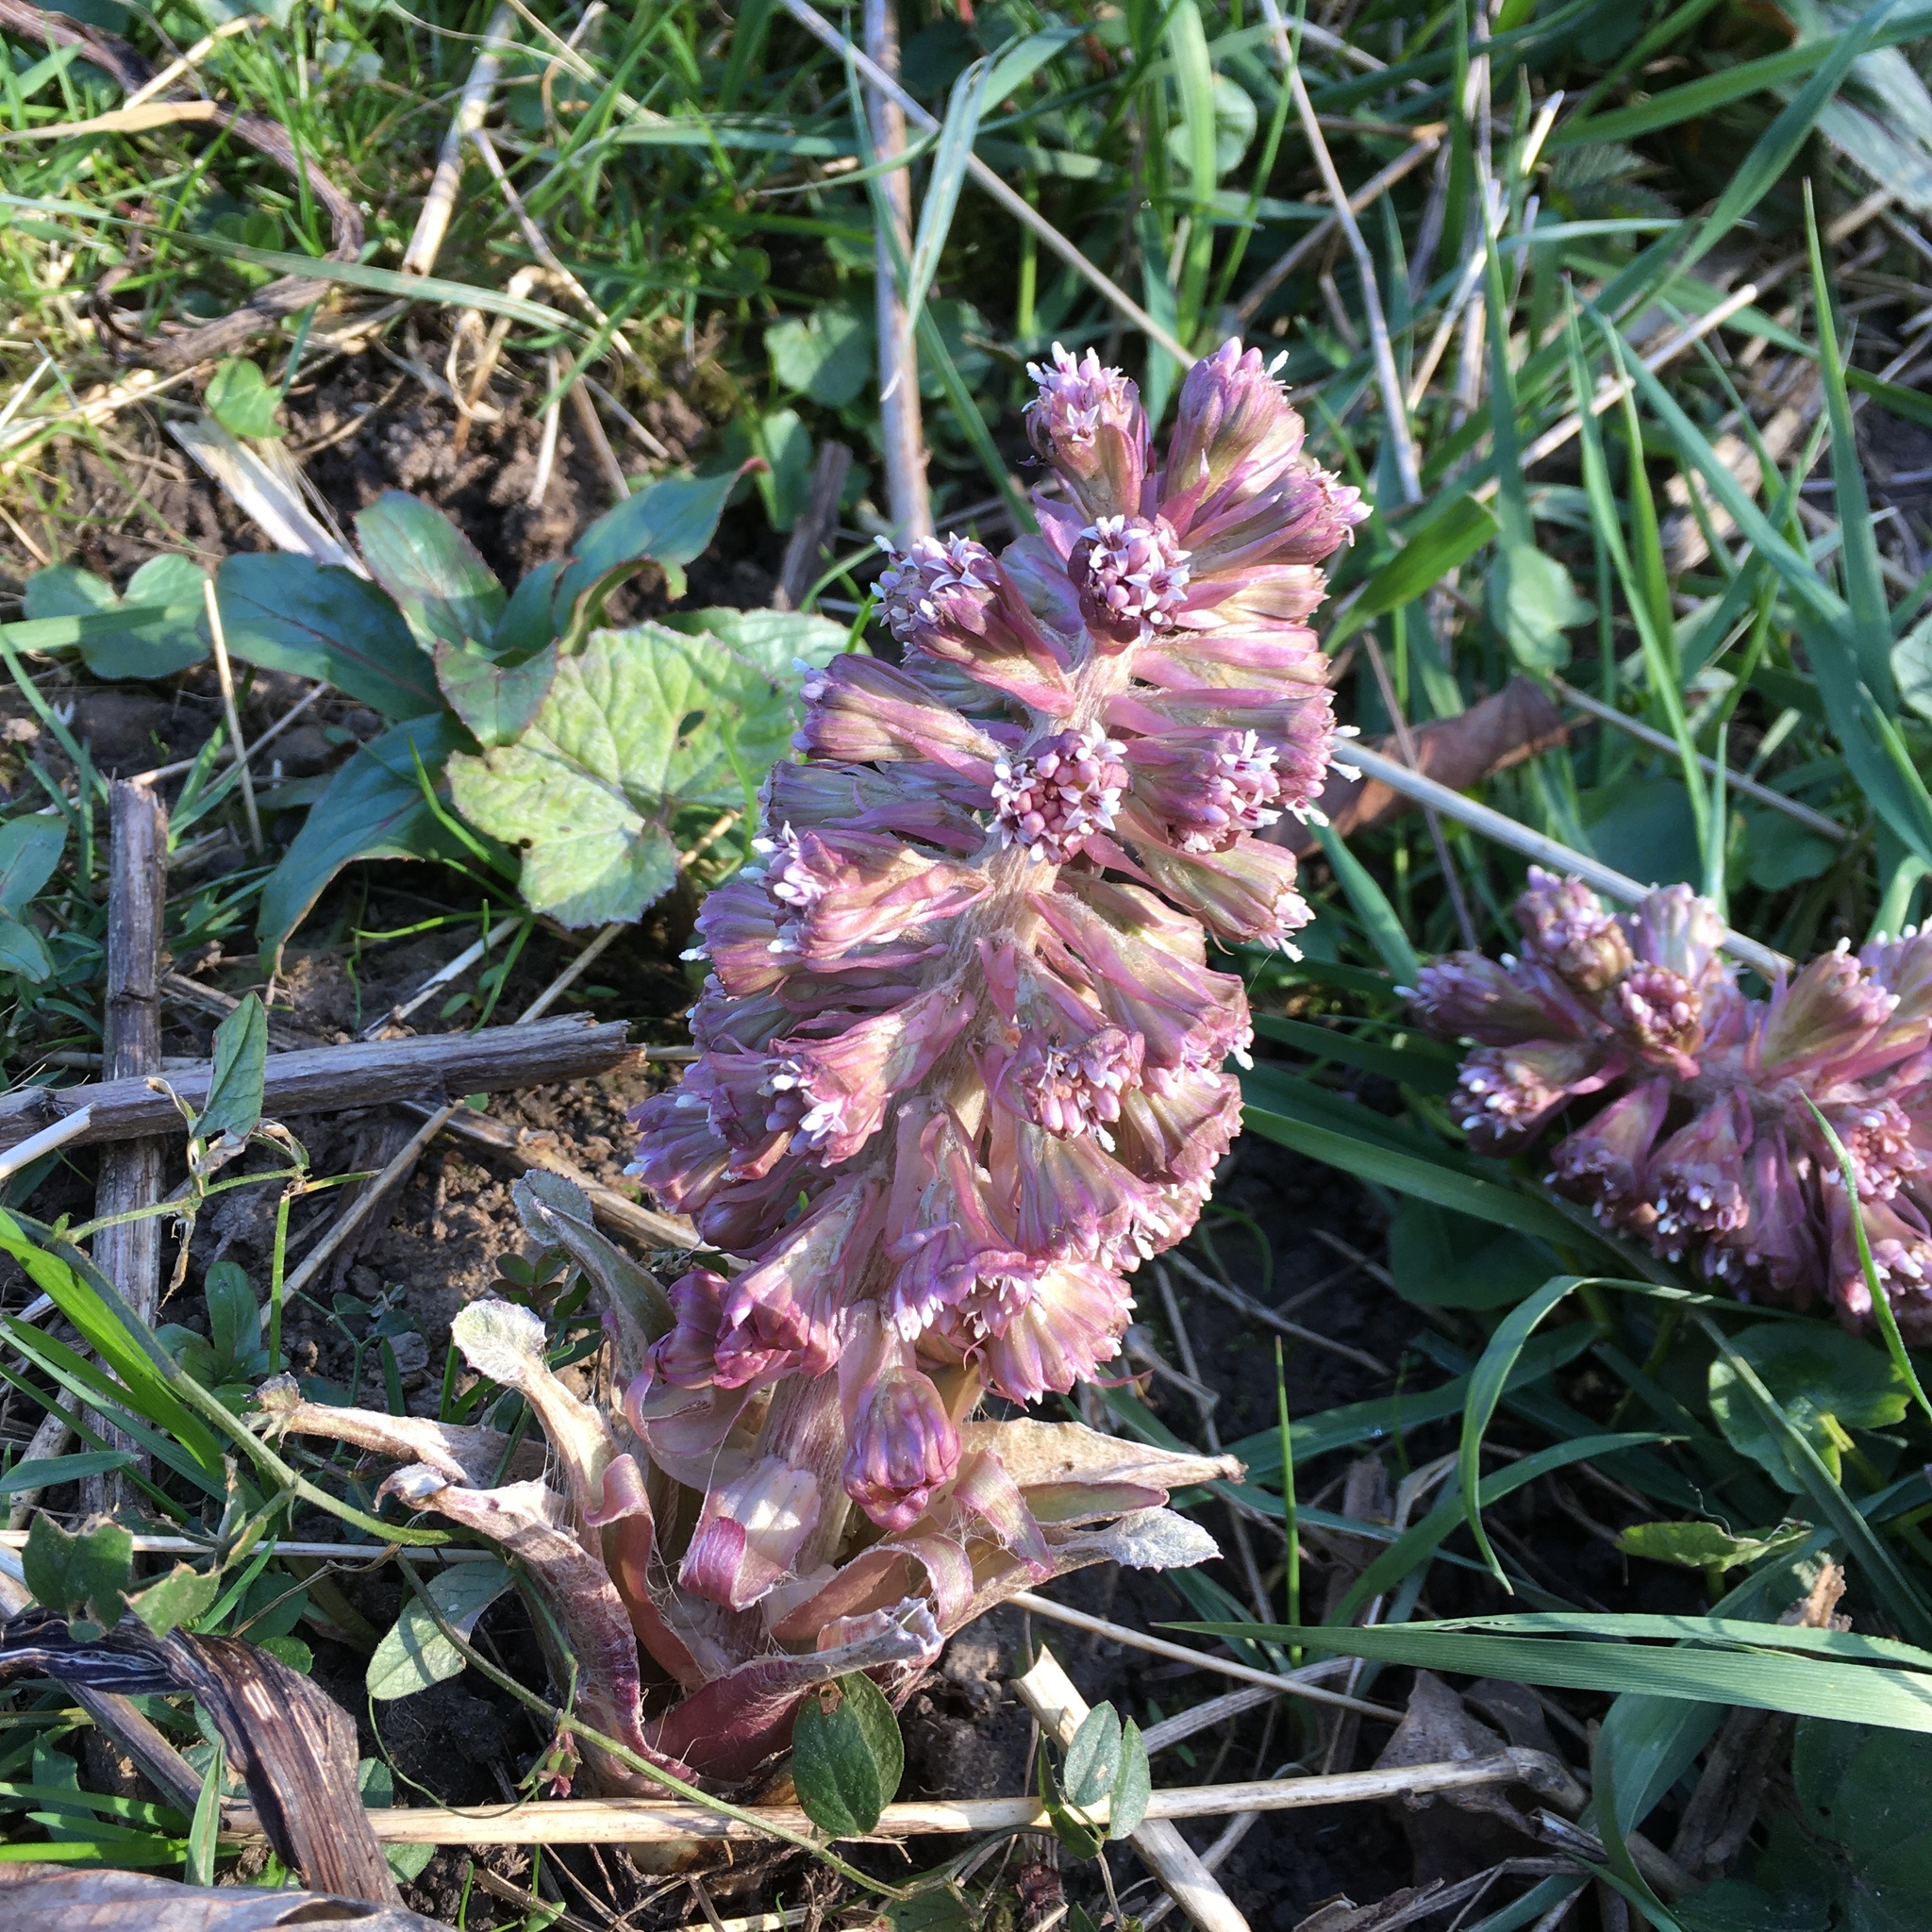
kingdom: Plantae
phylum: Tracheophyta
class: Magnoliopsida
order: Asterales
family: Asteraceae
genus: Petasites
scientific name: Petasites hybridus
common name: Butterbur
